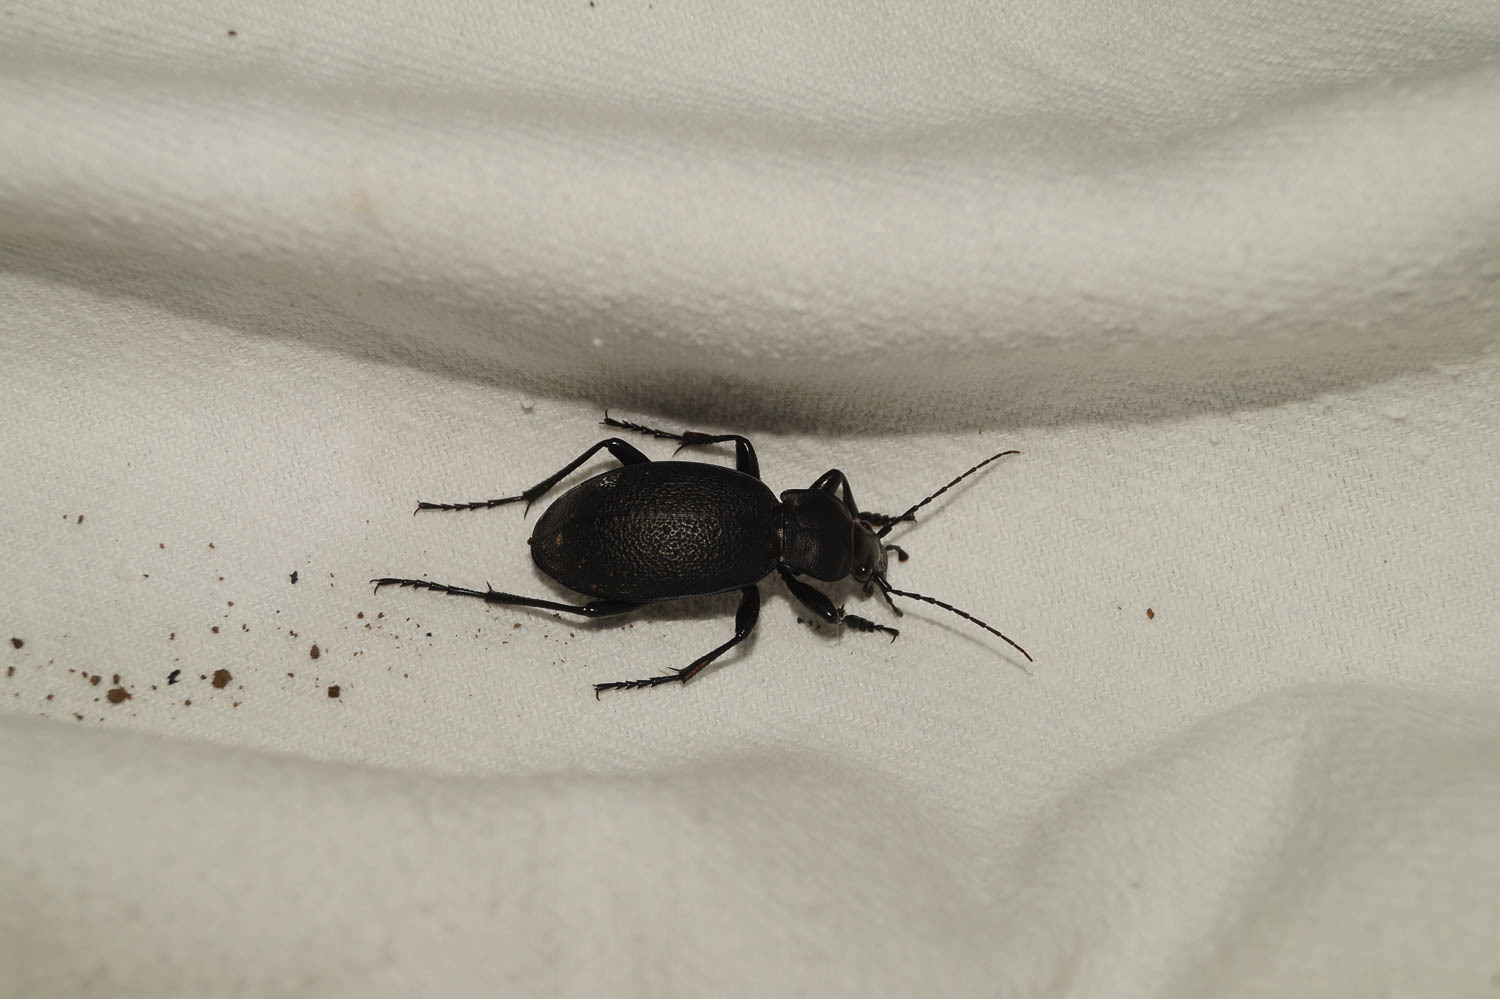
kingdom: Animalia
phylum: Arthropoda
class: Insecta
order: Coleoptera
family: Carabidae
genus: Carabus
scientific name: Carabus coriaceus
